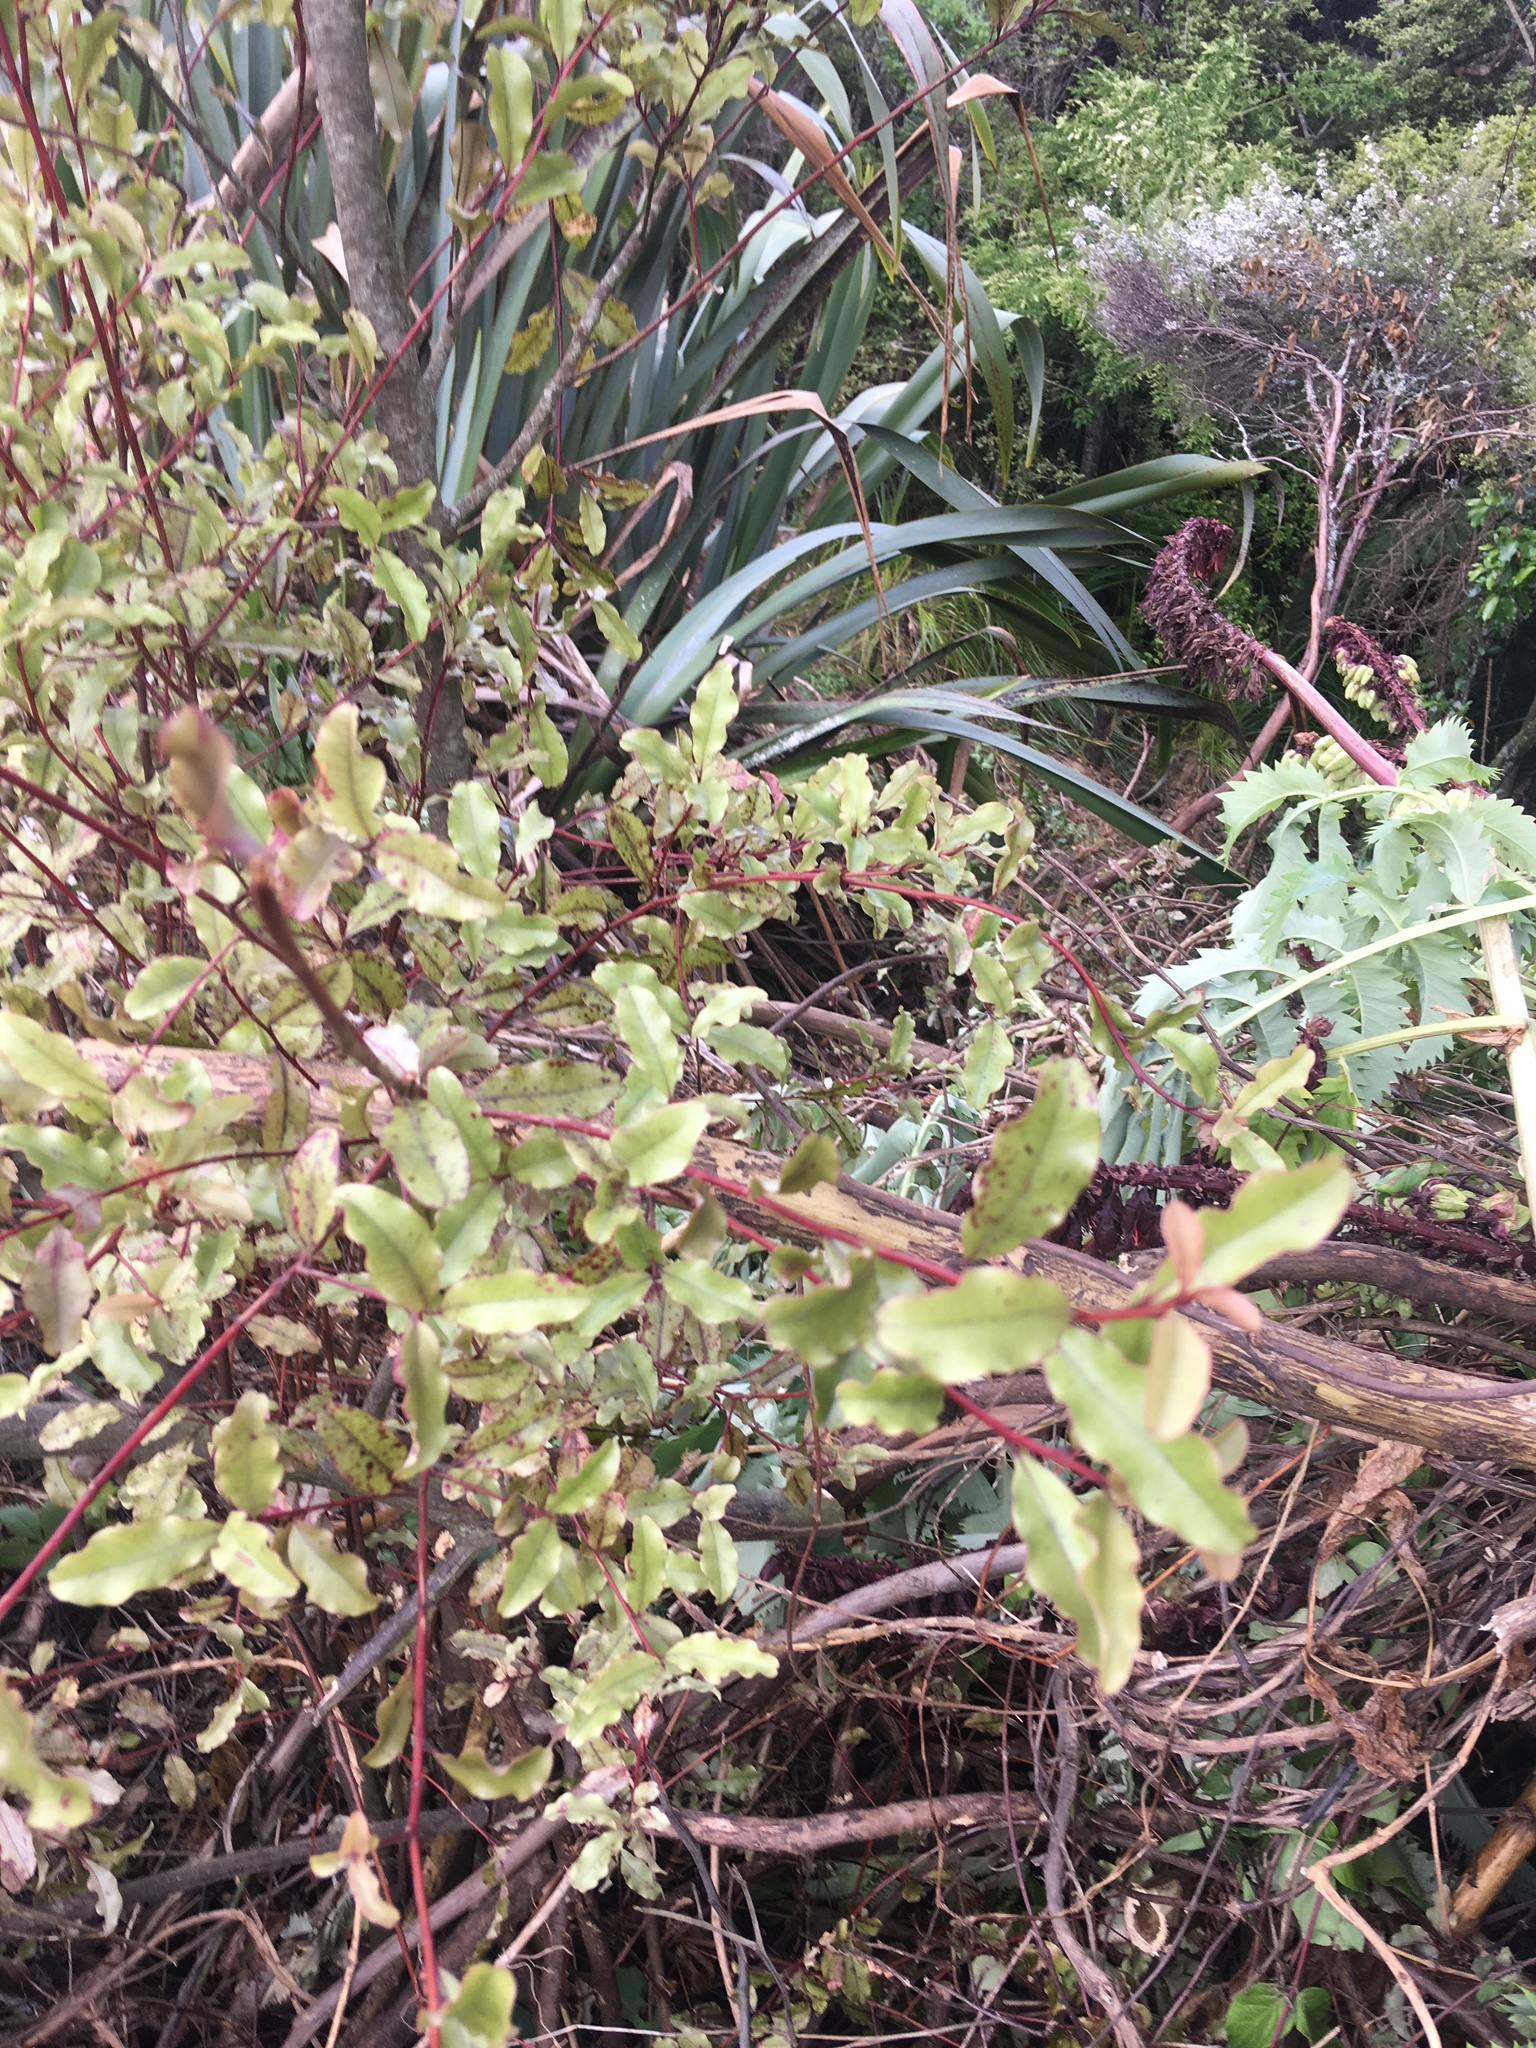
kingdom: Plantae
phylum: Tracheophyta
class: Magnoliopsida
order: Ericales
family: Primulaceae
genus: Myrsine
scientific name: Myrsine australis
